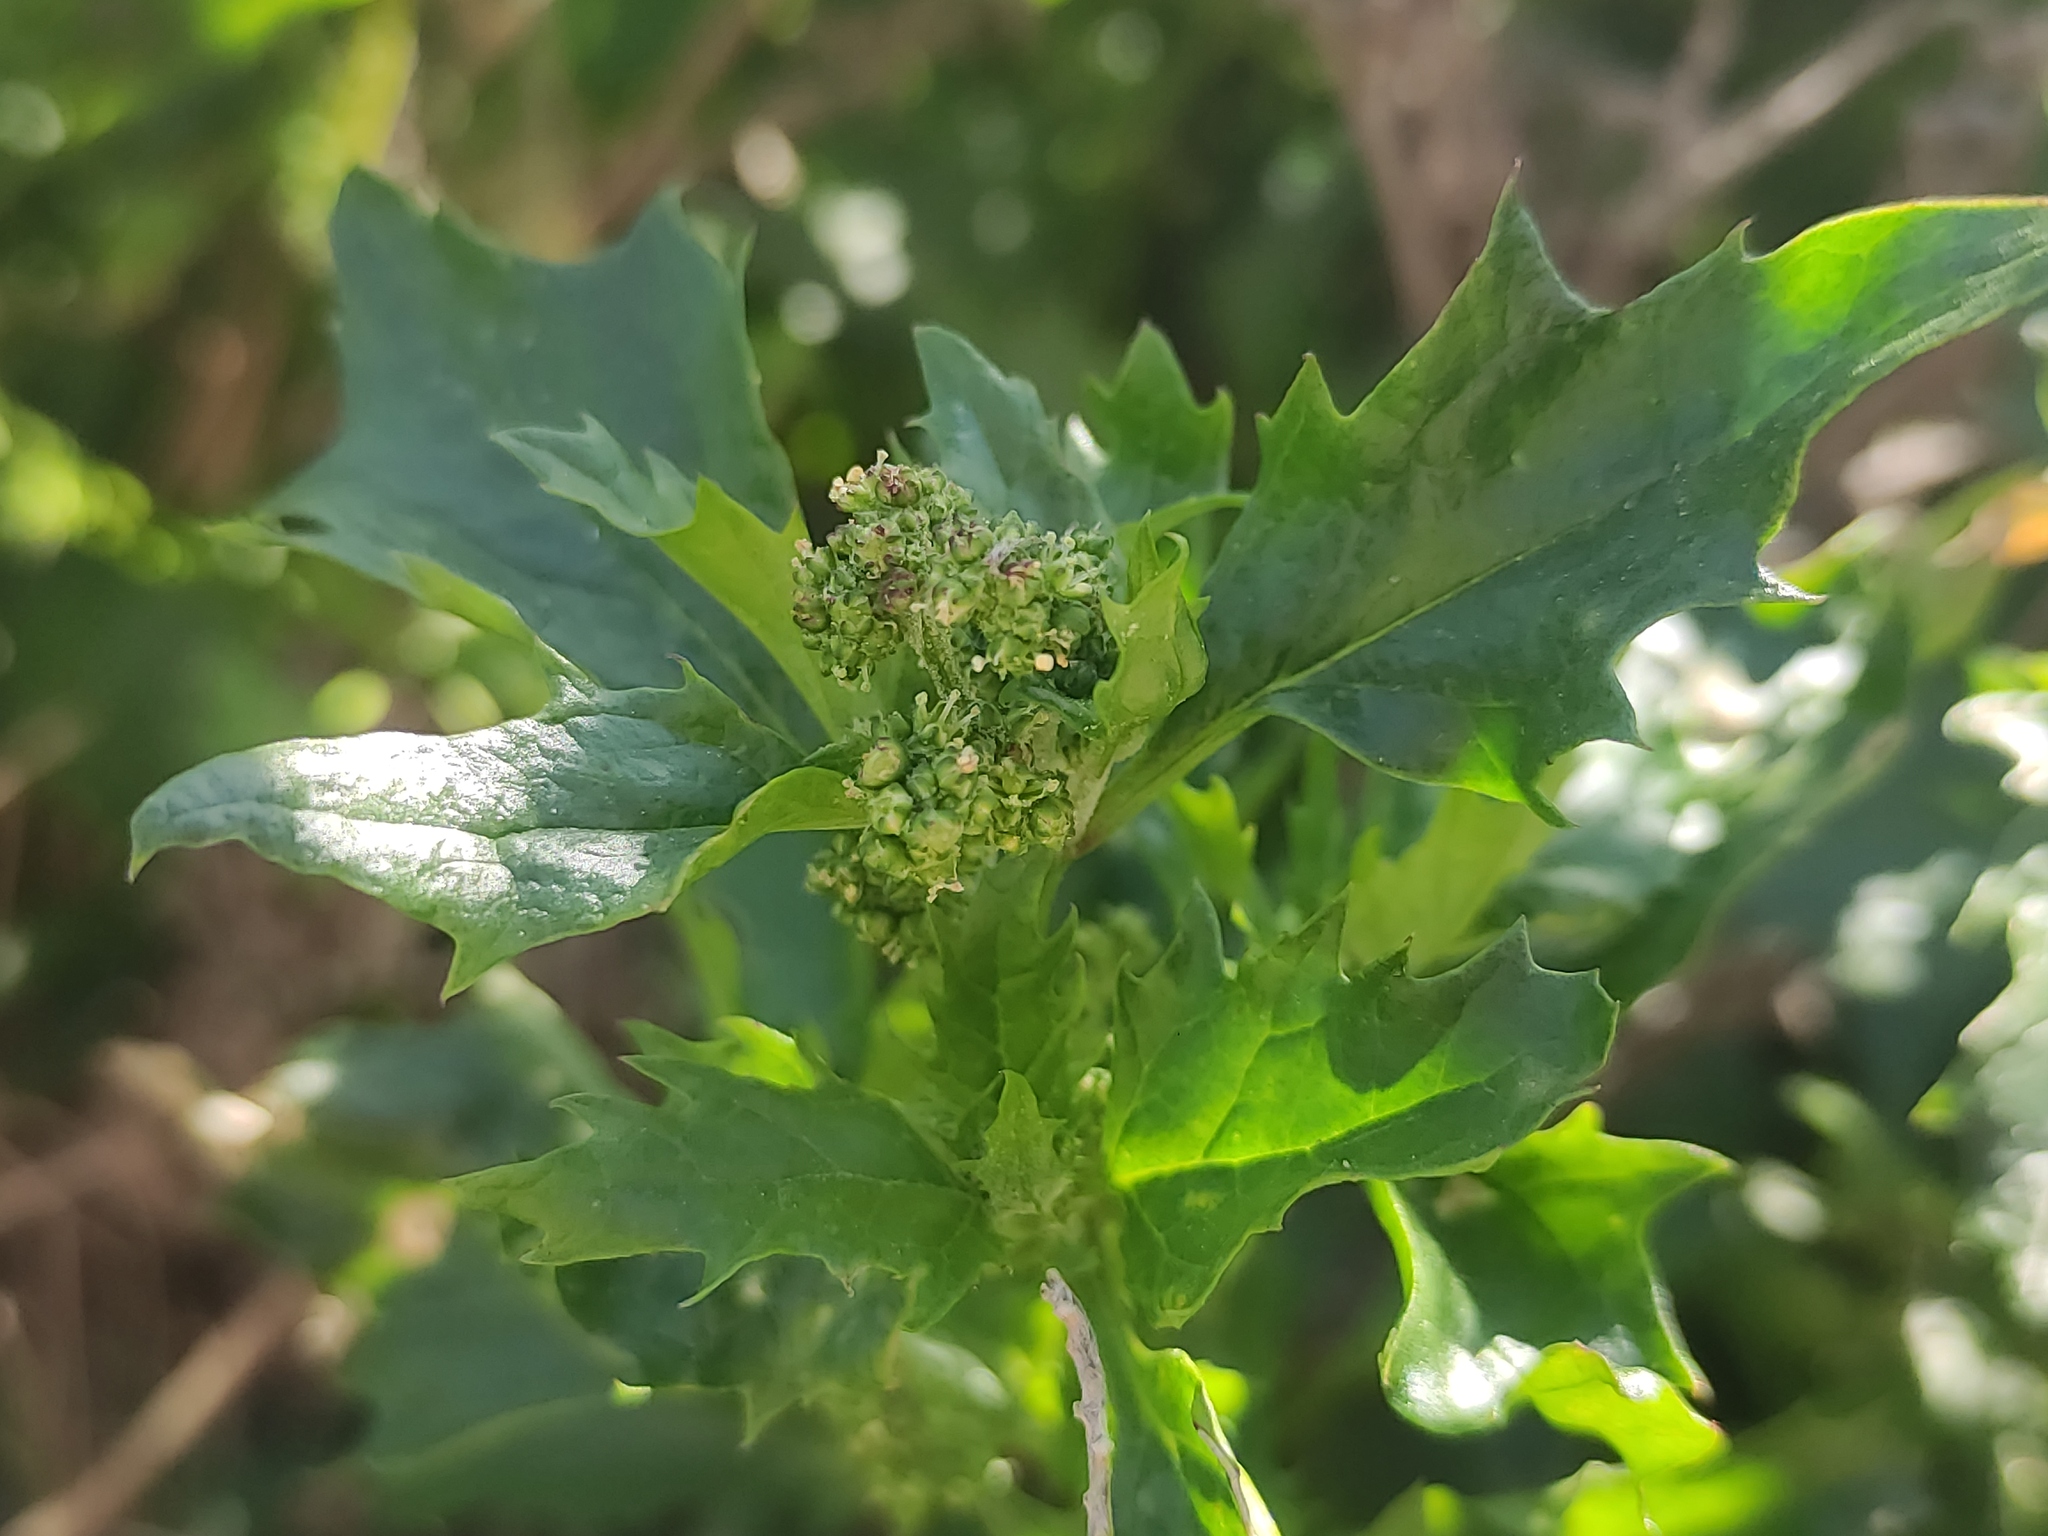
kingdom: Plantae
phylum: Tracheophyta
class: Magnoliopsida
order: Caryophyllales
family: Amaranthaceae
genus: Chenopodiastrum
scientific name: Chenopodiastrum murale
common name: Sowbane
